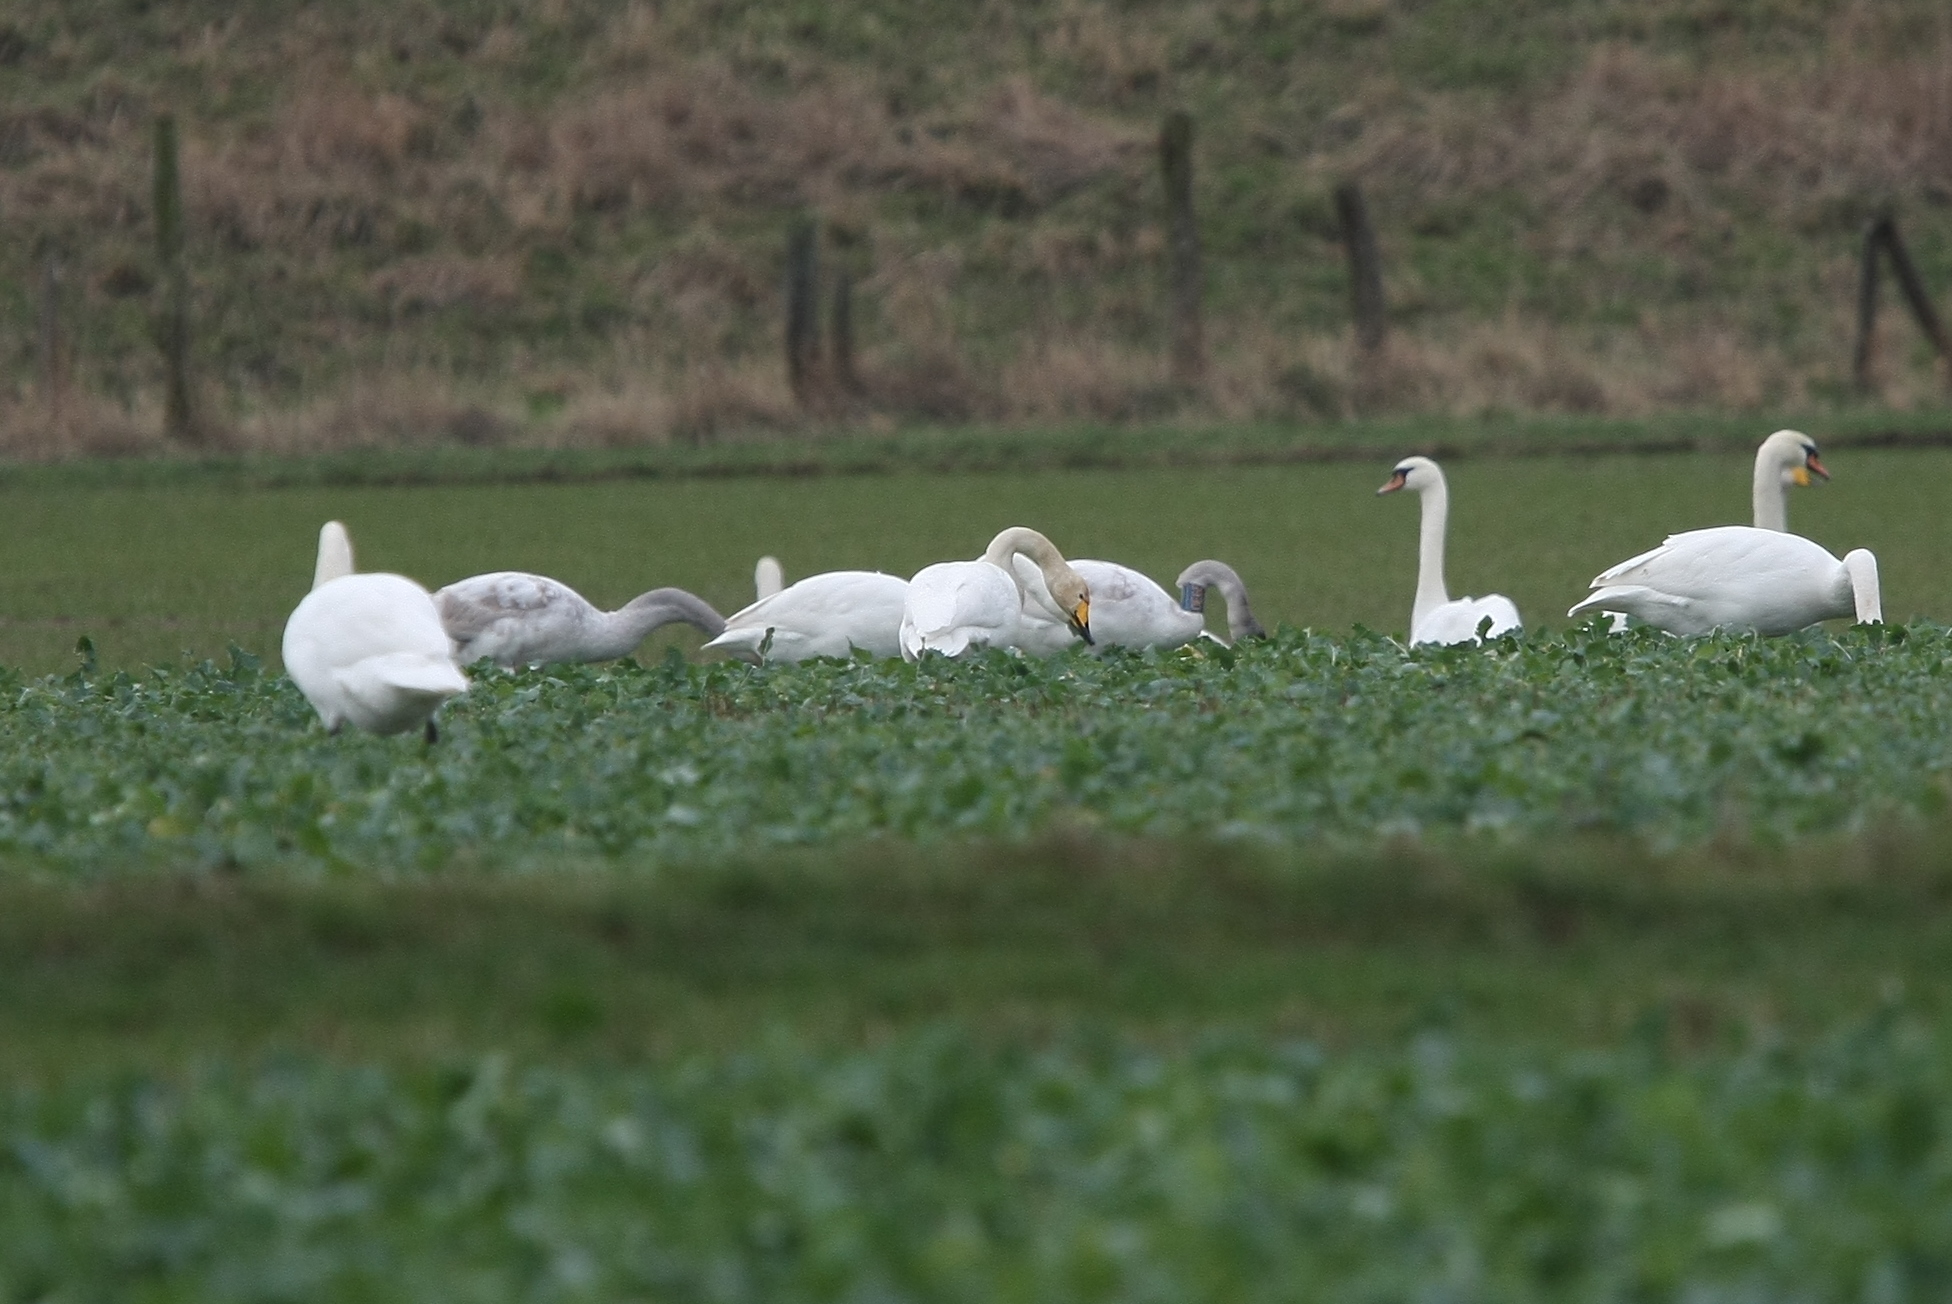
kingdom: Animalia
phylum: Chordata
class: Aves
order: Anseriformes
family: Anatidae
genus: Cygnus
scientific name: Cygnus cygnus
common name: Whooper swan
